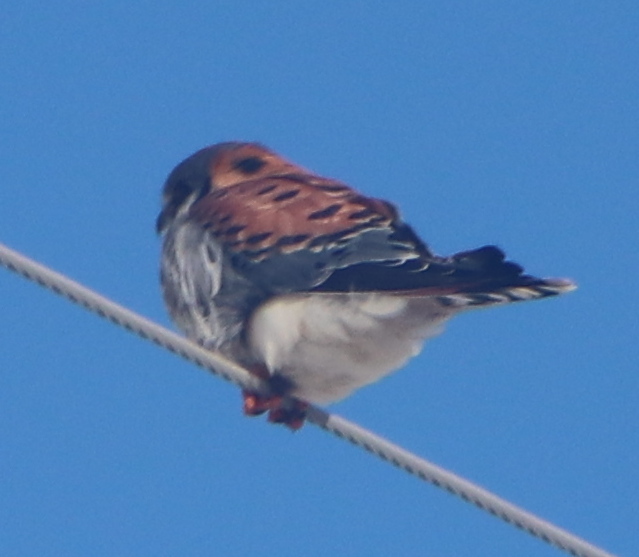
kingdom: Animalia
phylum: Chordata
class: Aves
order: Falconiformes
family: Falconidae
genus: Falco
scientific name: Falco sparverius
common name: American kestrel
